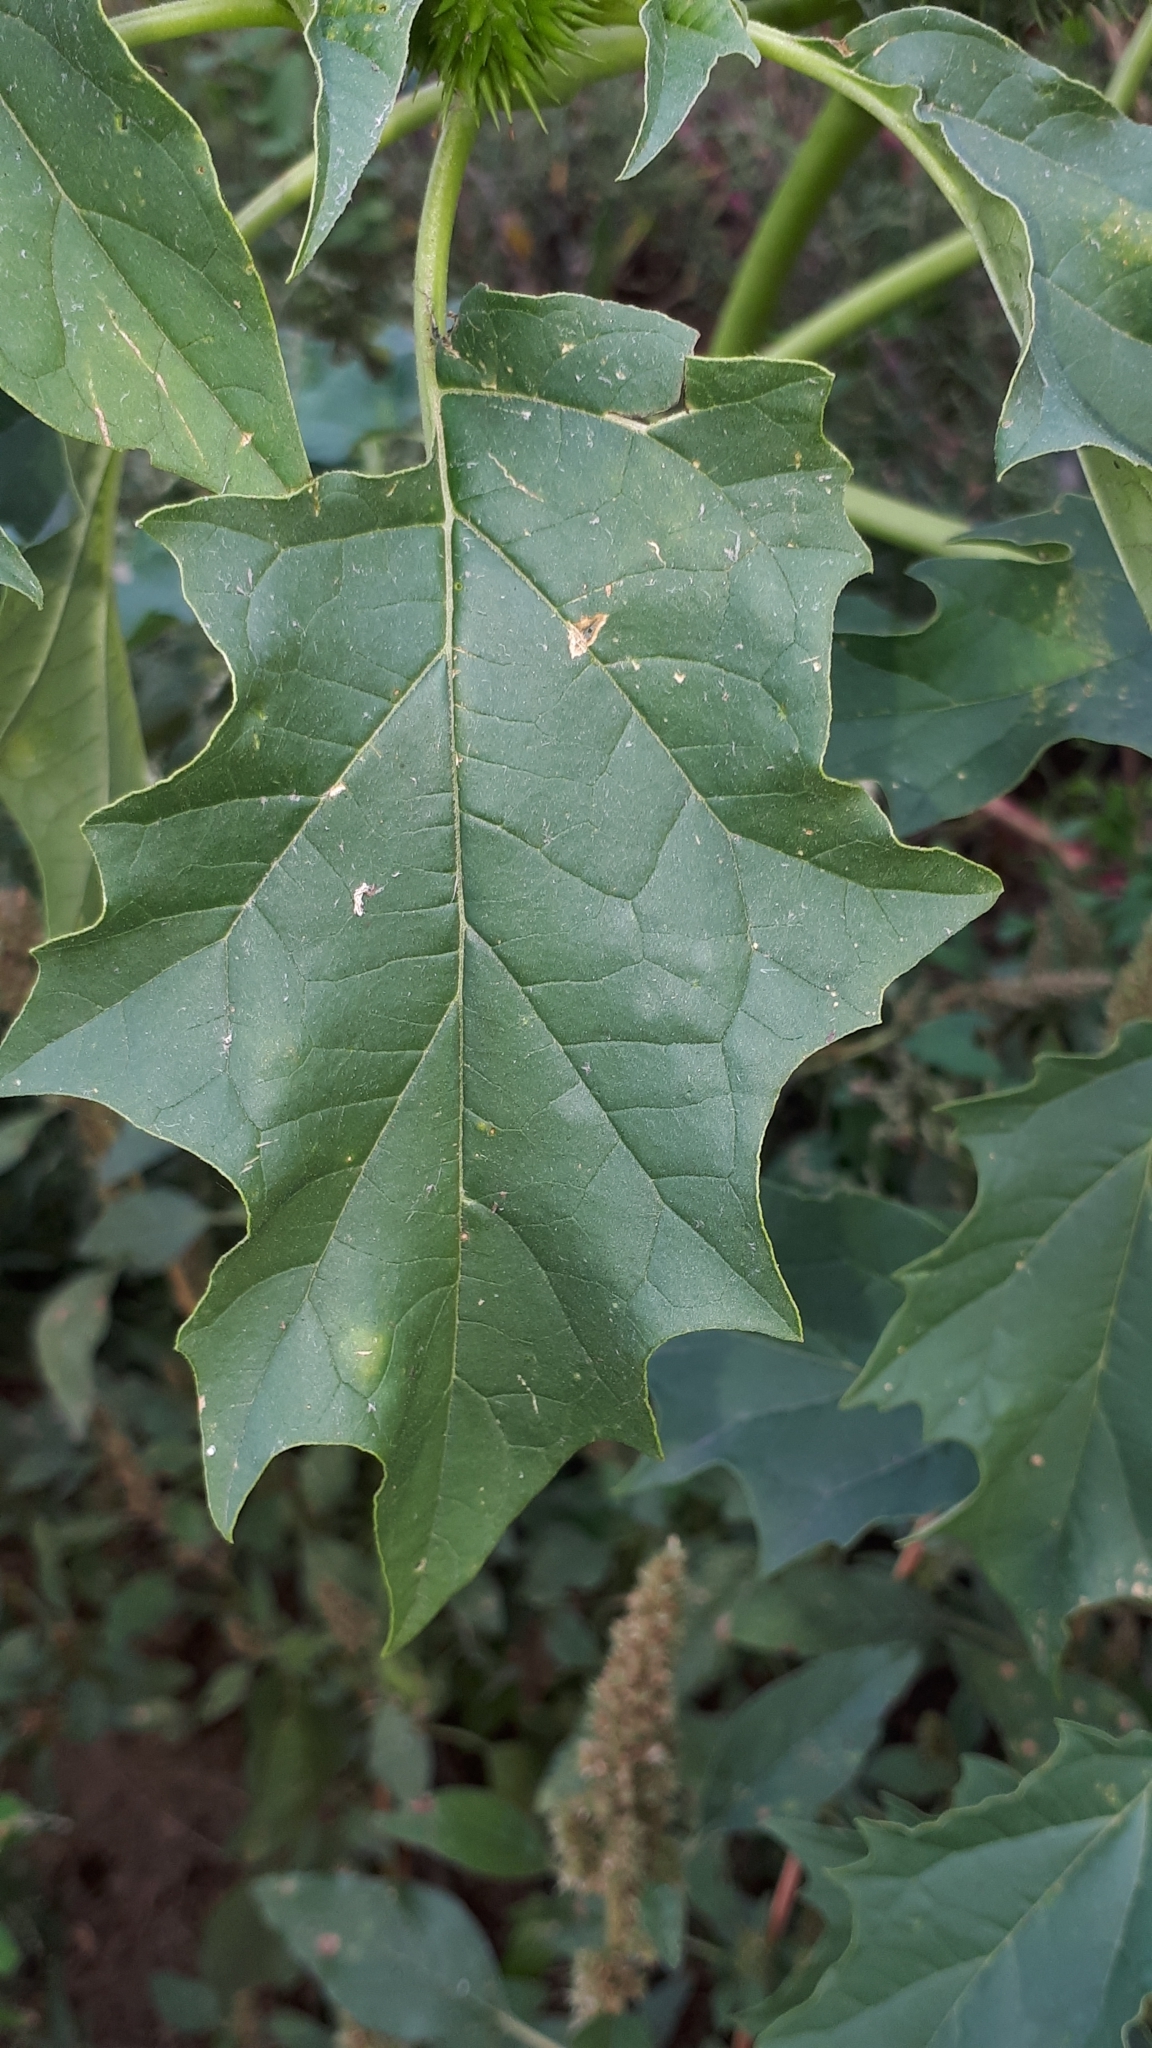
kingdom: Plantae
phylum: Tracheophyta
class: Magnoliopsida
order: Solanales
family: Solanaceae
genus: Datura
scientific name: Datura stramonium
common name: Thorn-apple
